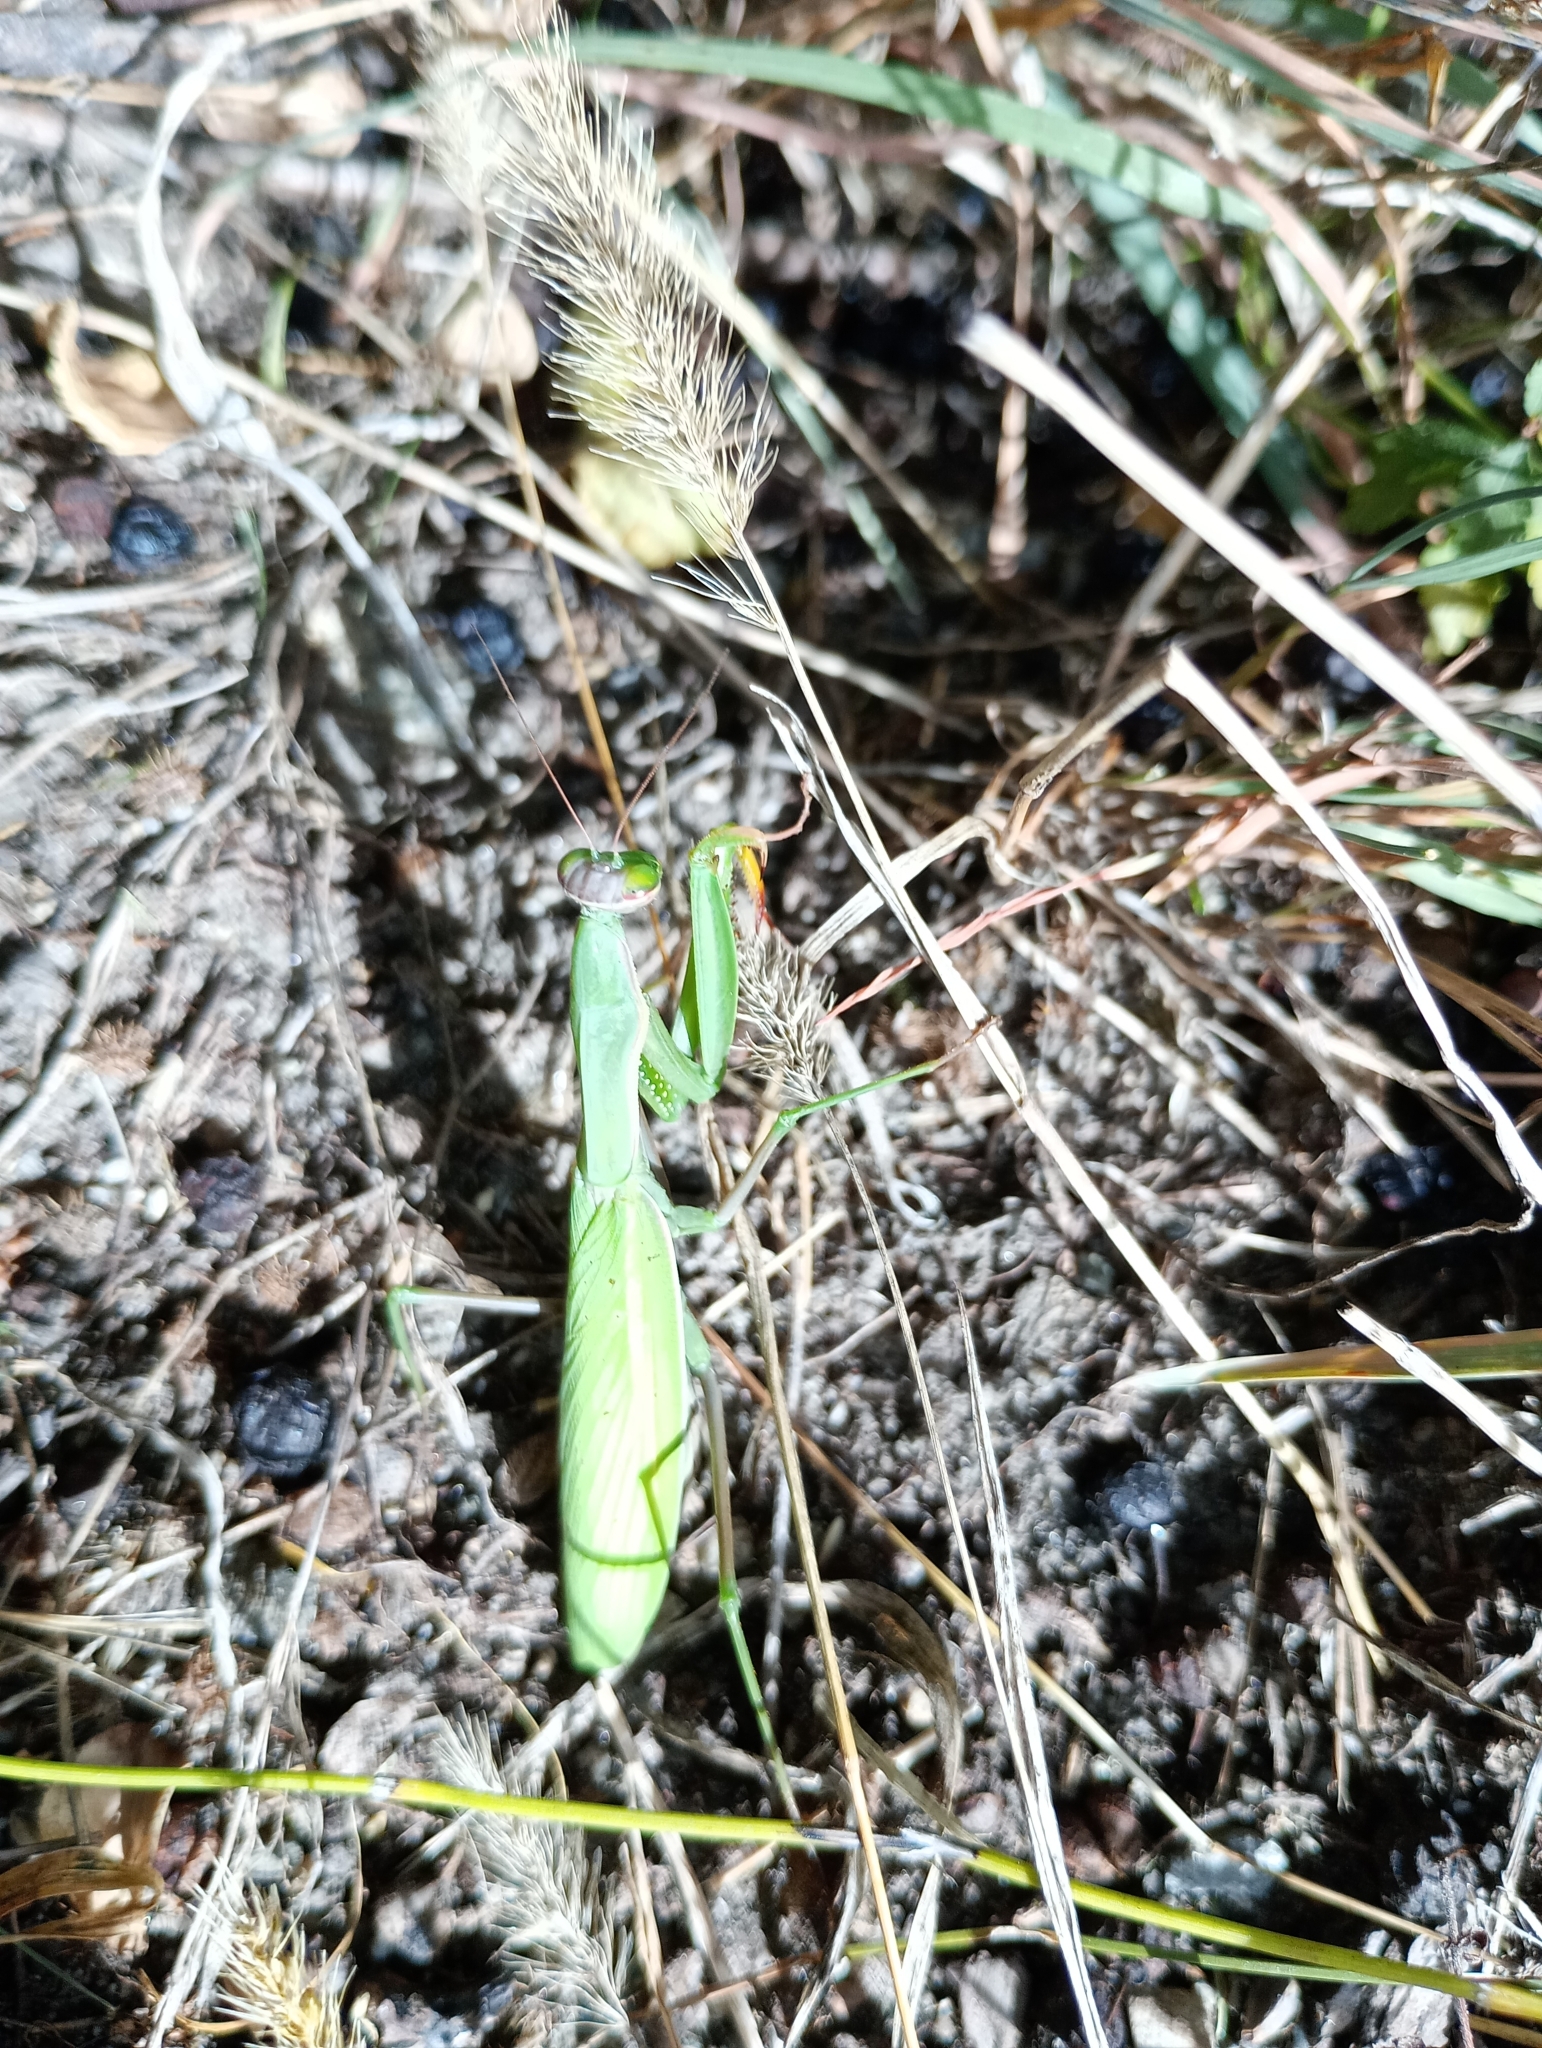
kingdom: Animalia
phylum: Arthropoda
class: Insecta
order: Mantodea
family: Mantidae
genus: Mantis
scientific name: Mantis religiosa
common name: Praying mantis
